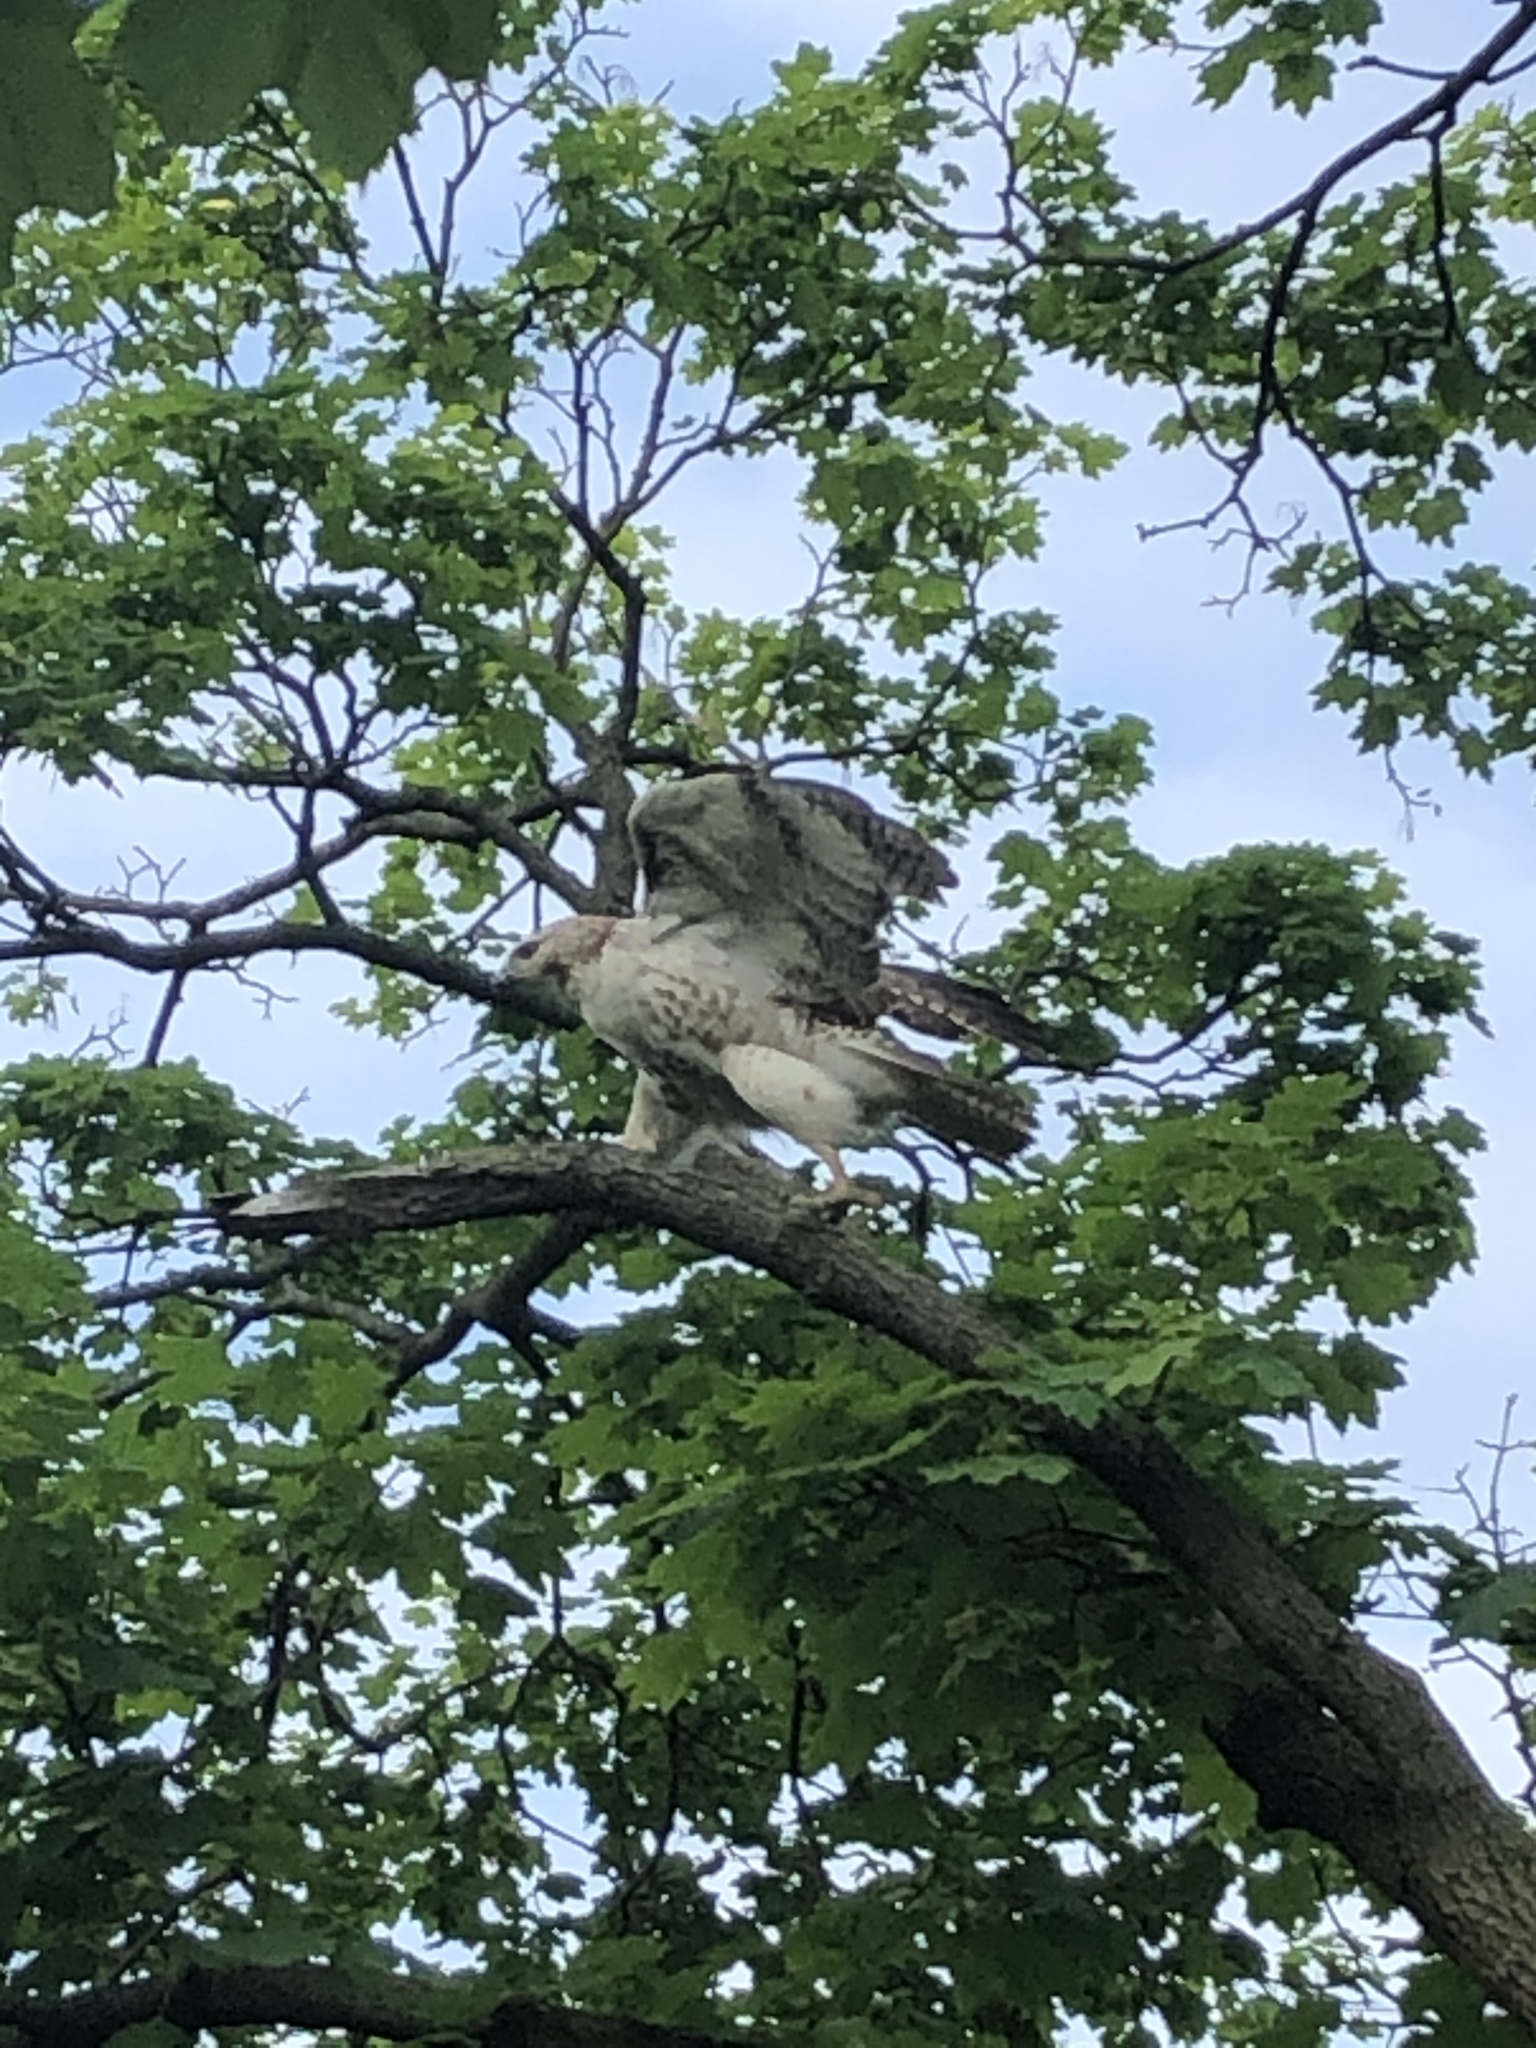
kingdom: Animalia
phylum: Chordata
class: Aves
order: Accipitriformes
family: Accipitridae
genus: Buteo
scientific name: Buteo jamaicensis
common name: Red-tailed hawk
